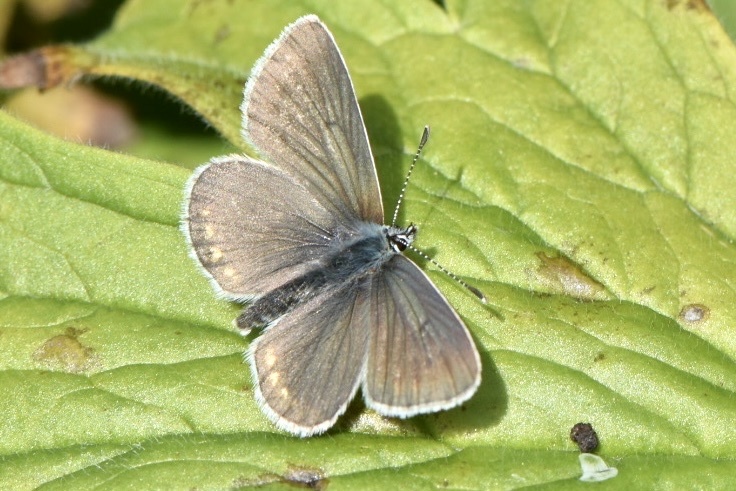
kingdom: Animalia
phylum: Arthropoda
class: Insecta
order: Lepidoptera
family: Lycaenidae
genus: Eumedonia
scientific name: Eumedonia eumedon
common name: Geranium argus
